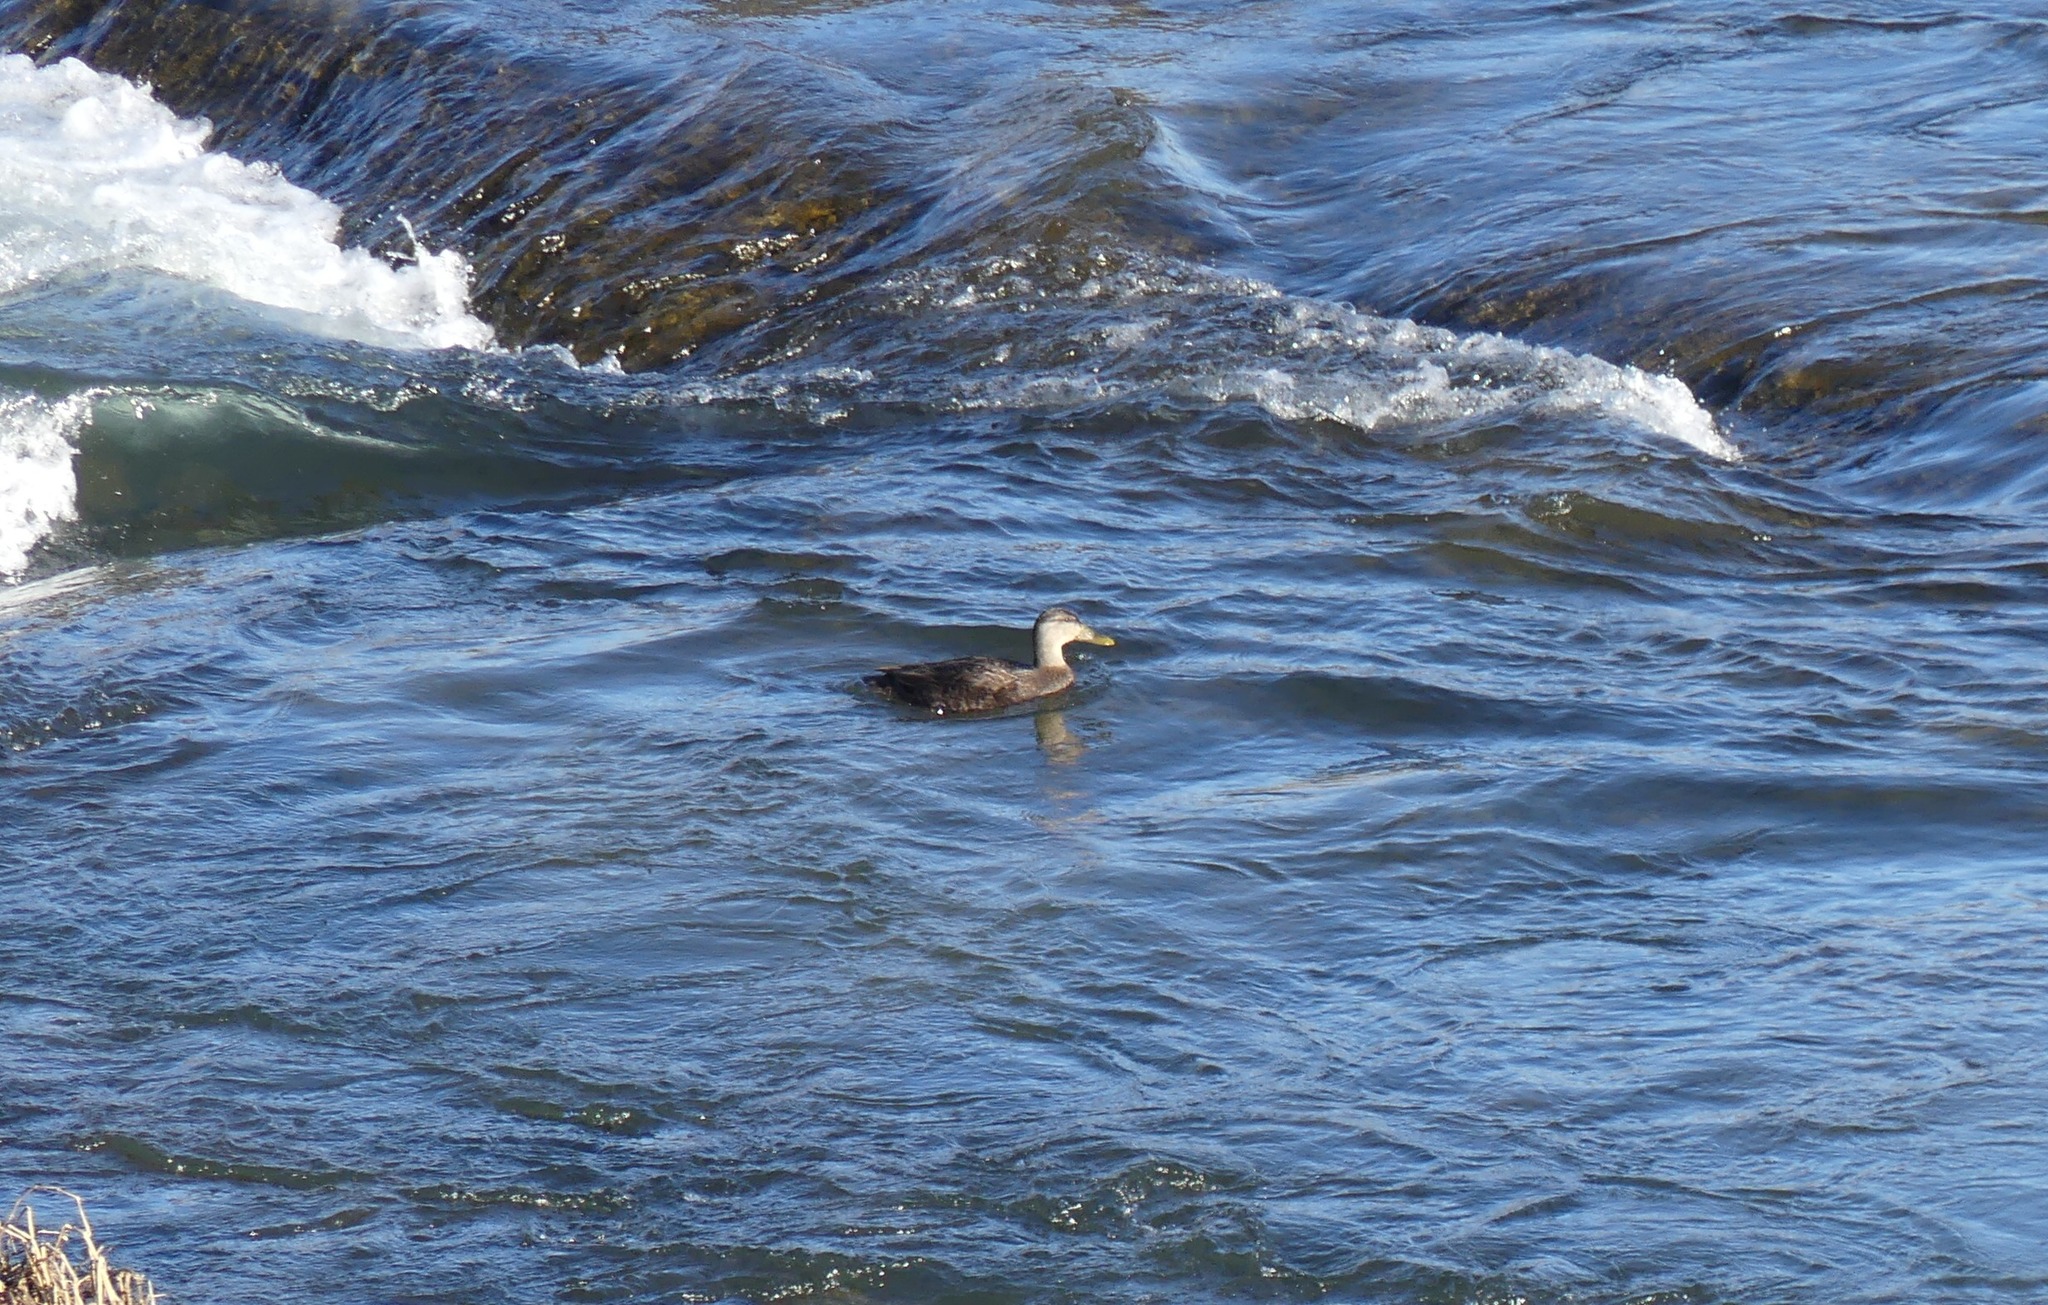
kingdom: Animalia
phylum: Chordata
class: Aves
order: Anseriformes
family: Anatidae
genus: Anas
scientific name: Anas rubripes
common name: American black duck
